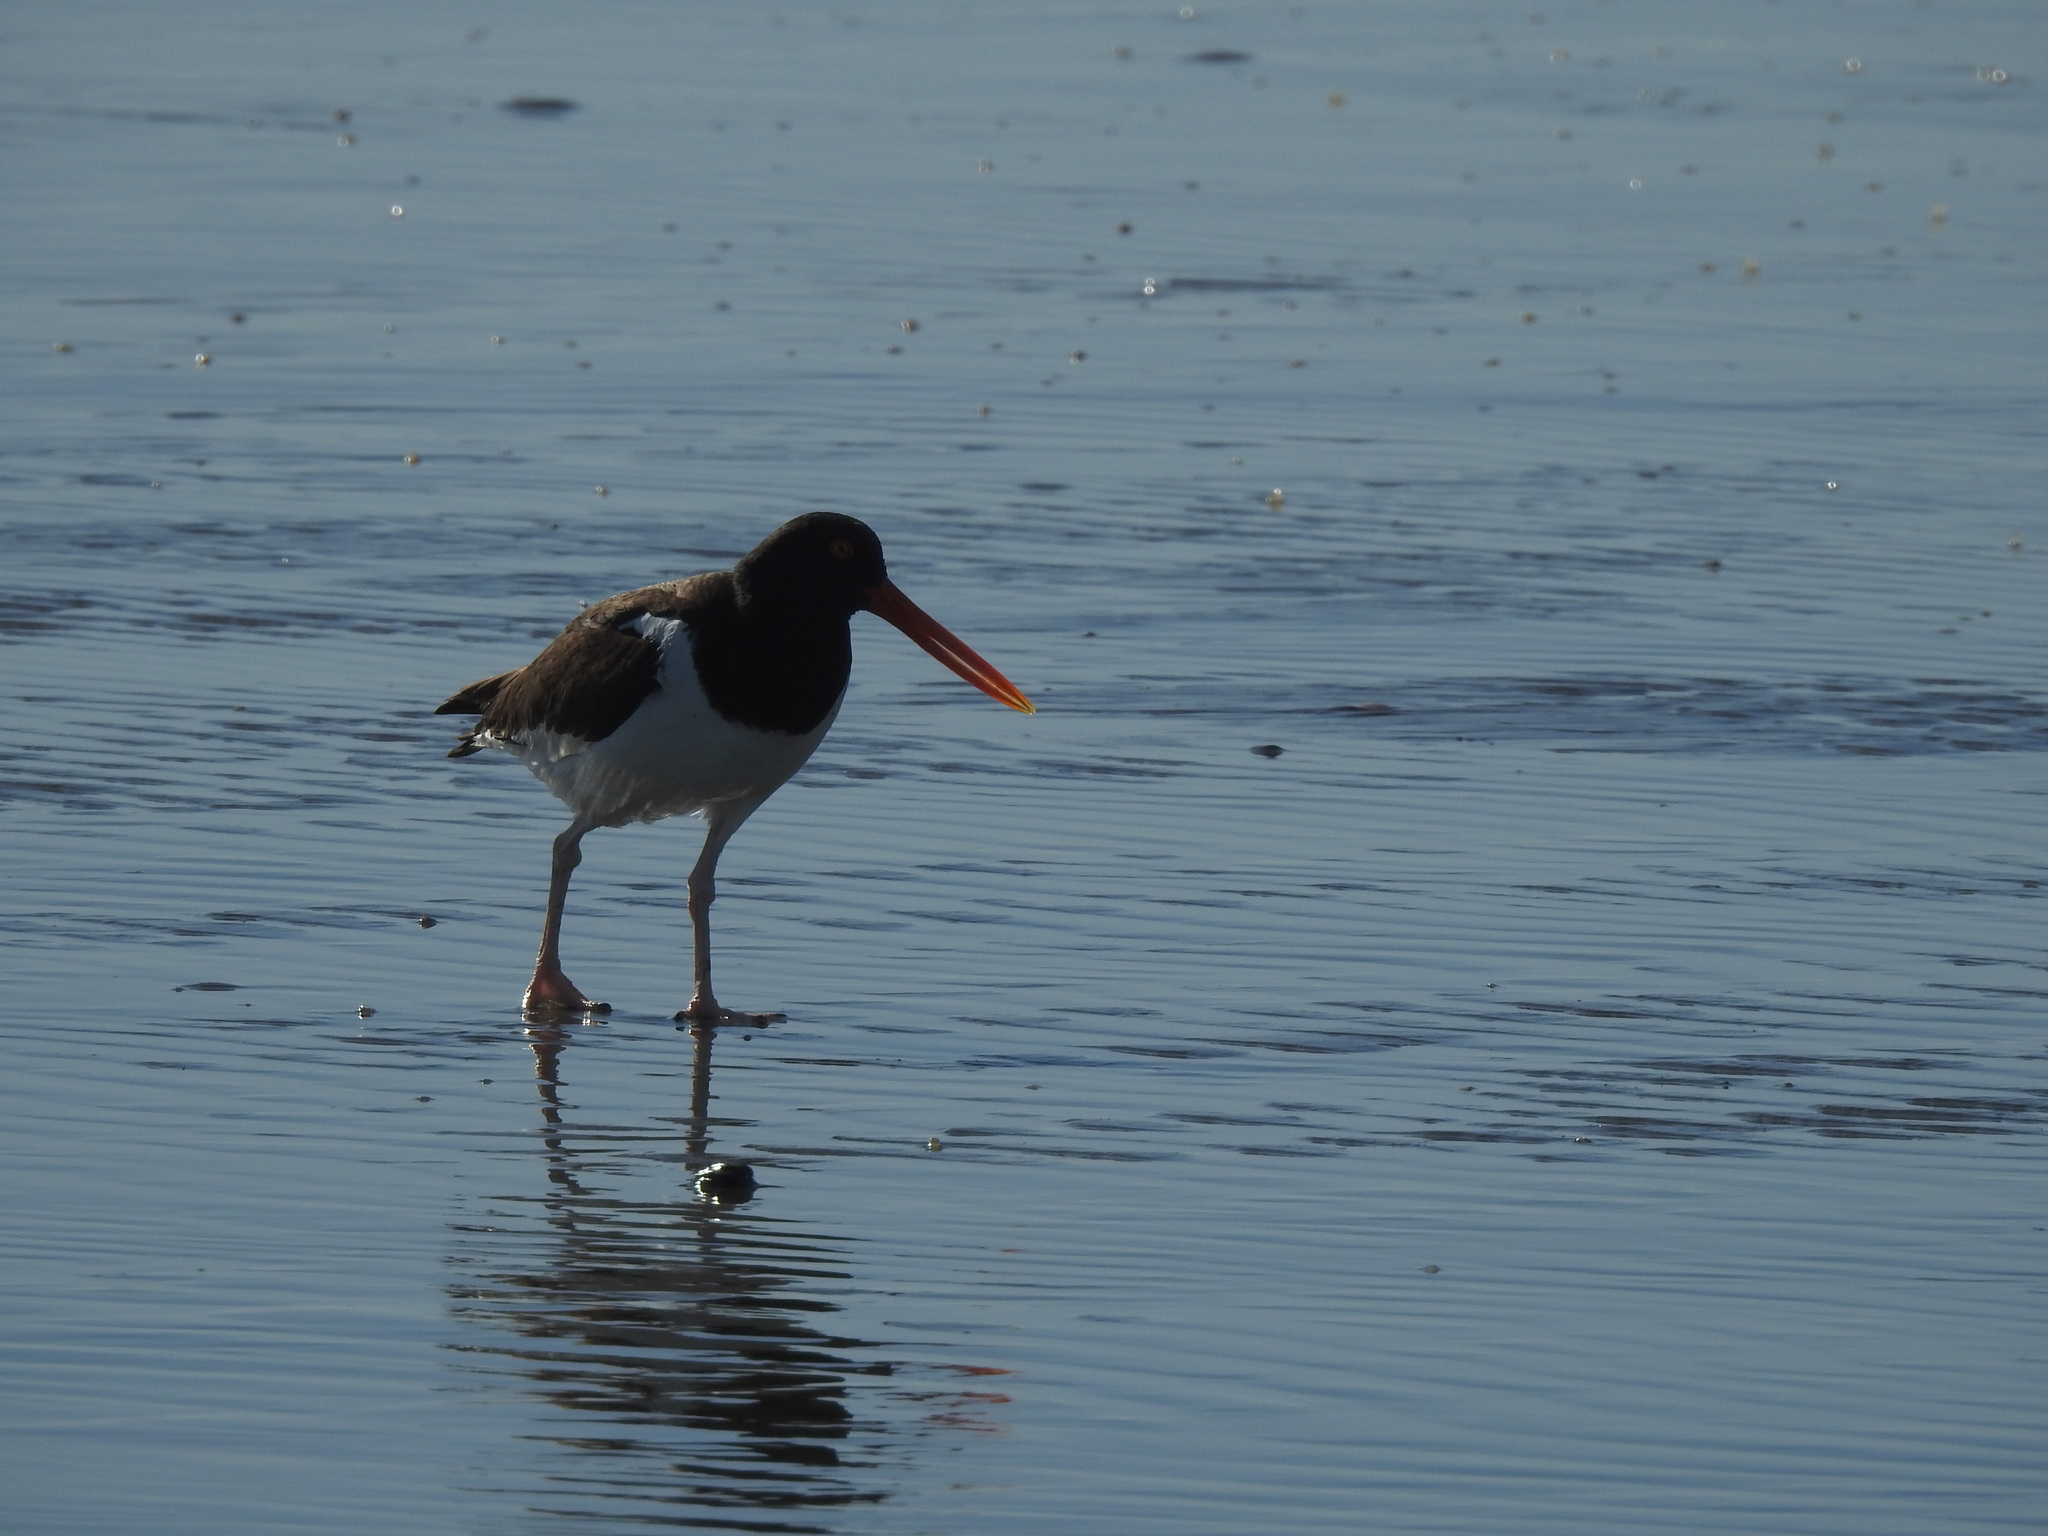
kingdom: Animalia
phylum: Chordata
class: Aves
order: Charadriiformes
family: Haematopodidae
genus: Haematopus
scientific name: Haematopus palliatus
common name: American oystercatcher
